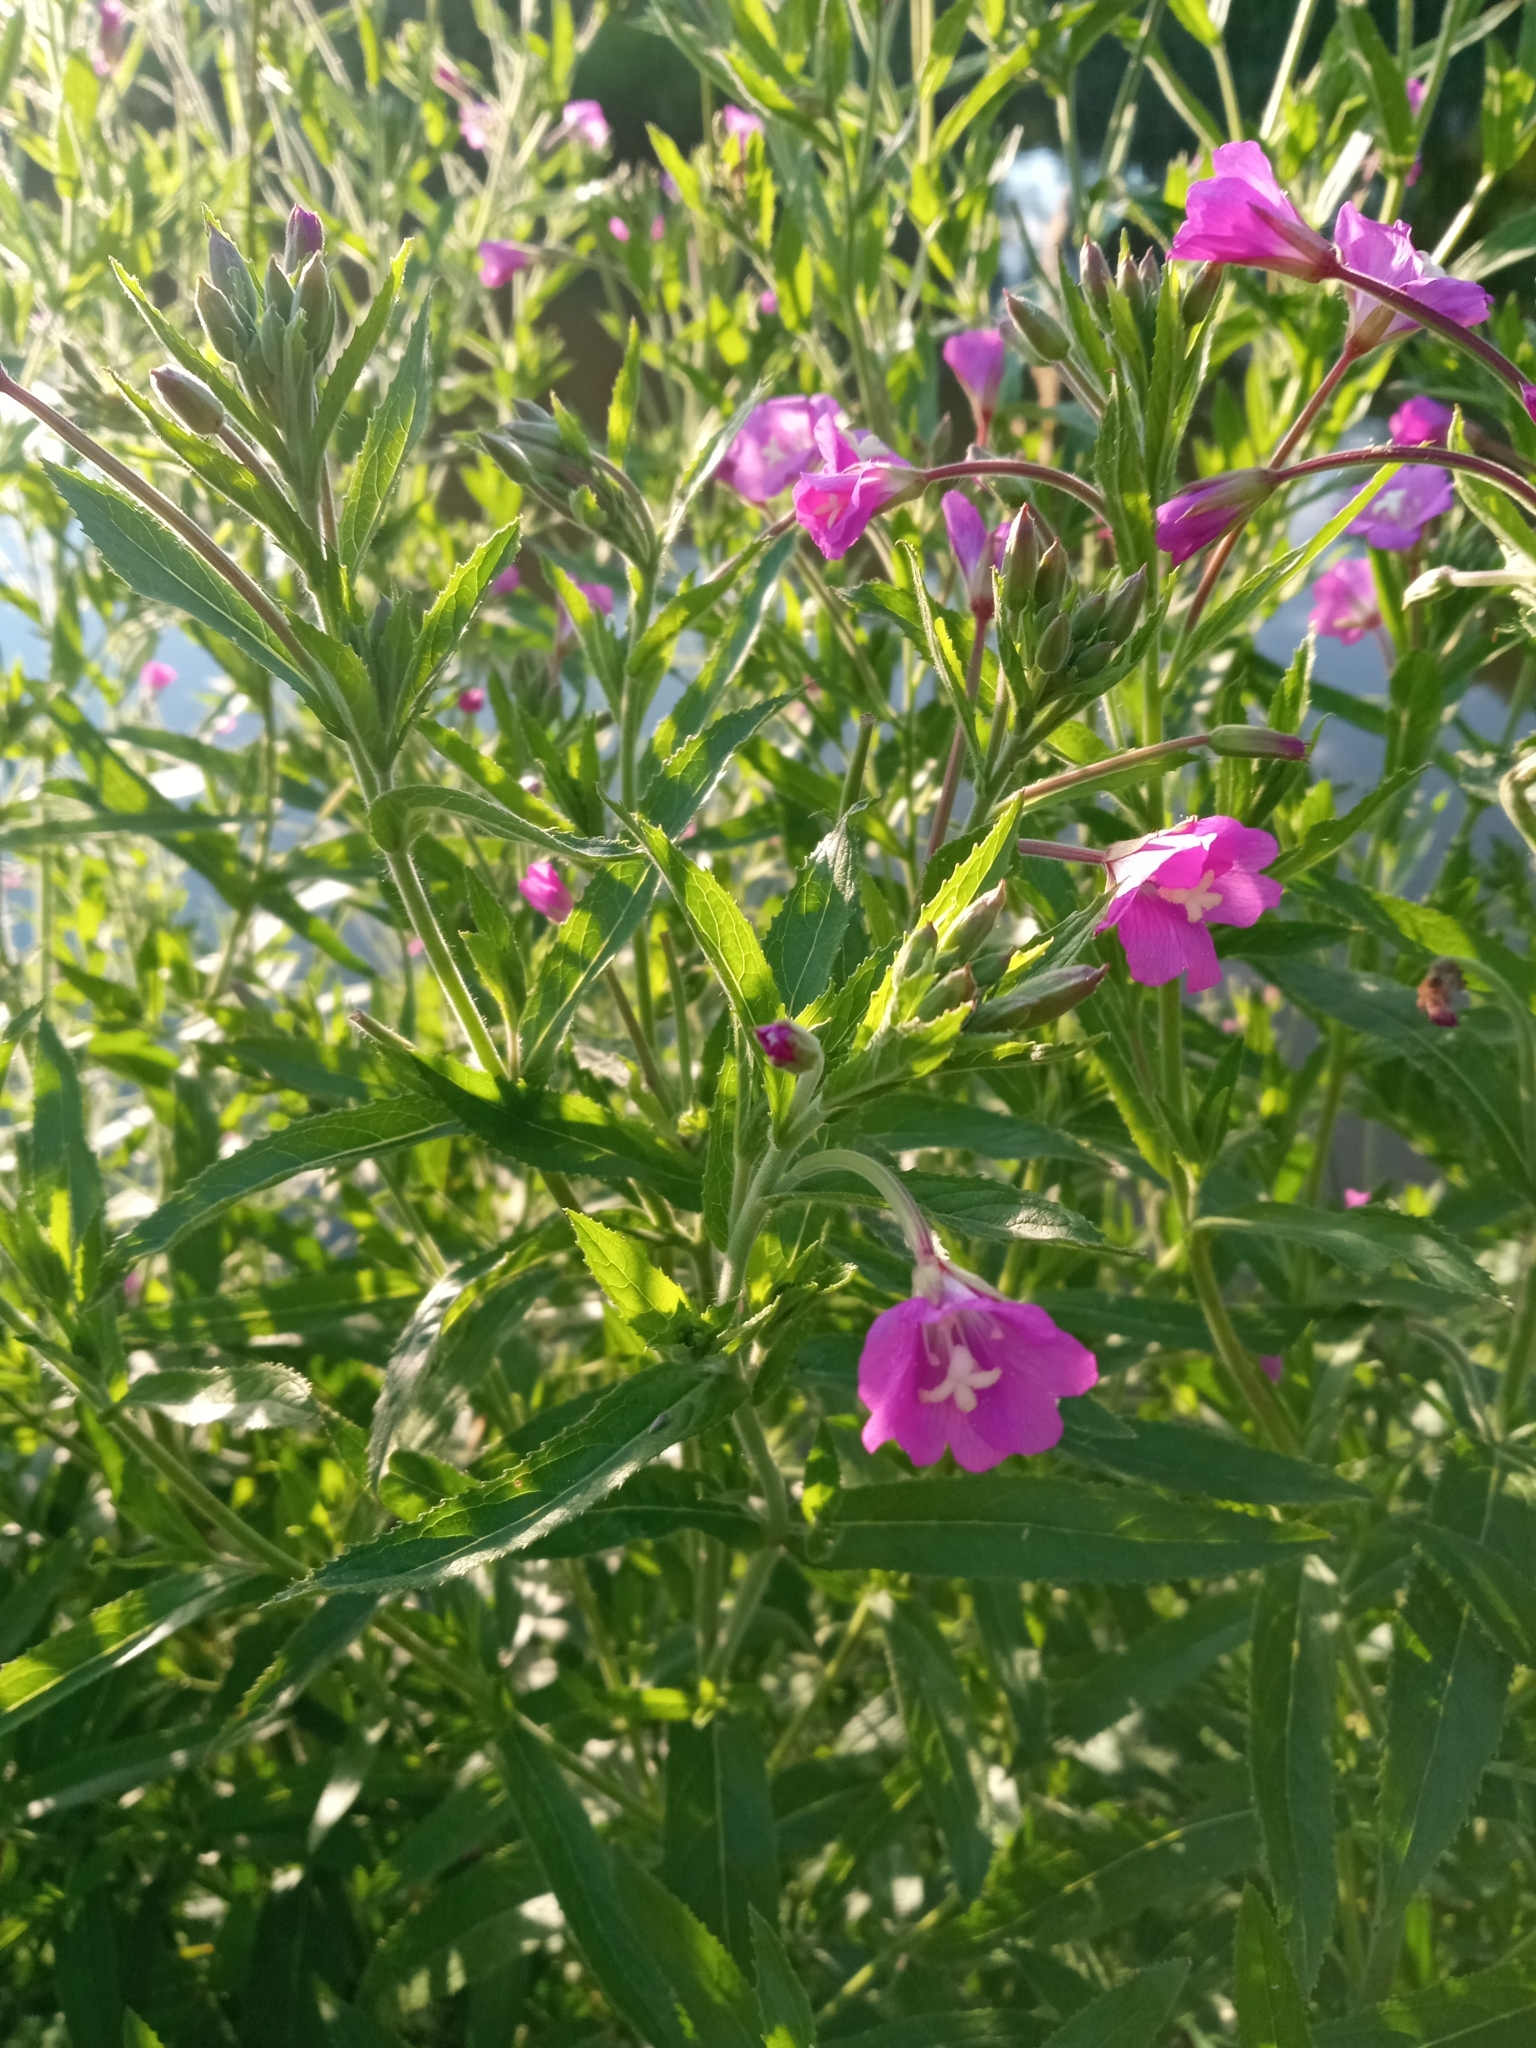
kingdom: Plantae
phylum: Tracheophyta
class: Magnoliopsida
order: Myrtales
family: Onagraceae
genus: Epilobium
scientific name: Epilobium hirsutum
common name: Great willowherb
